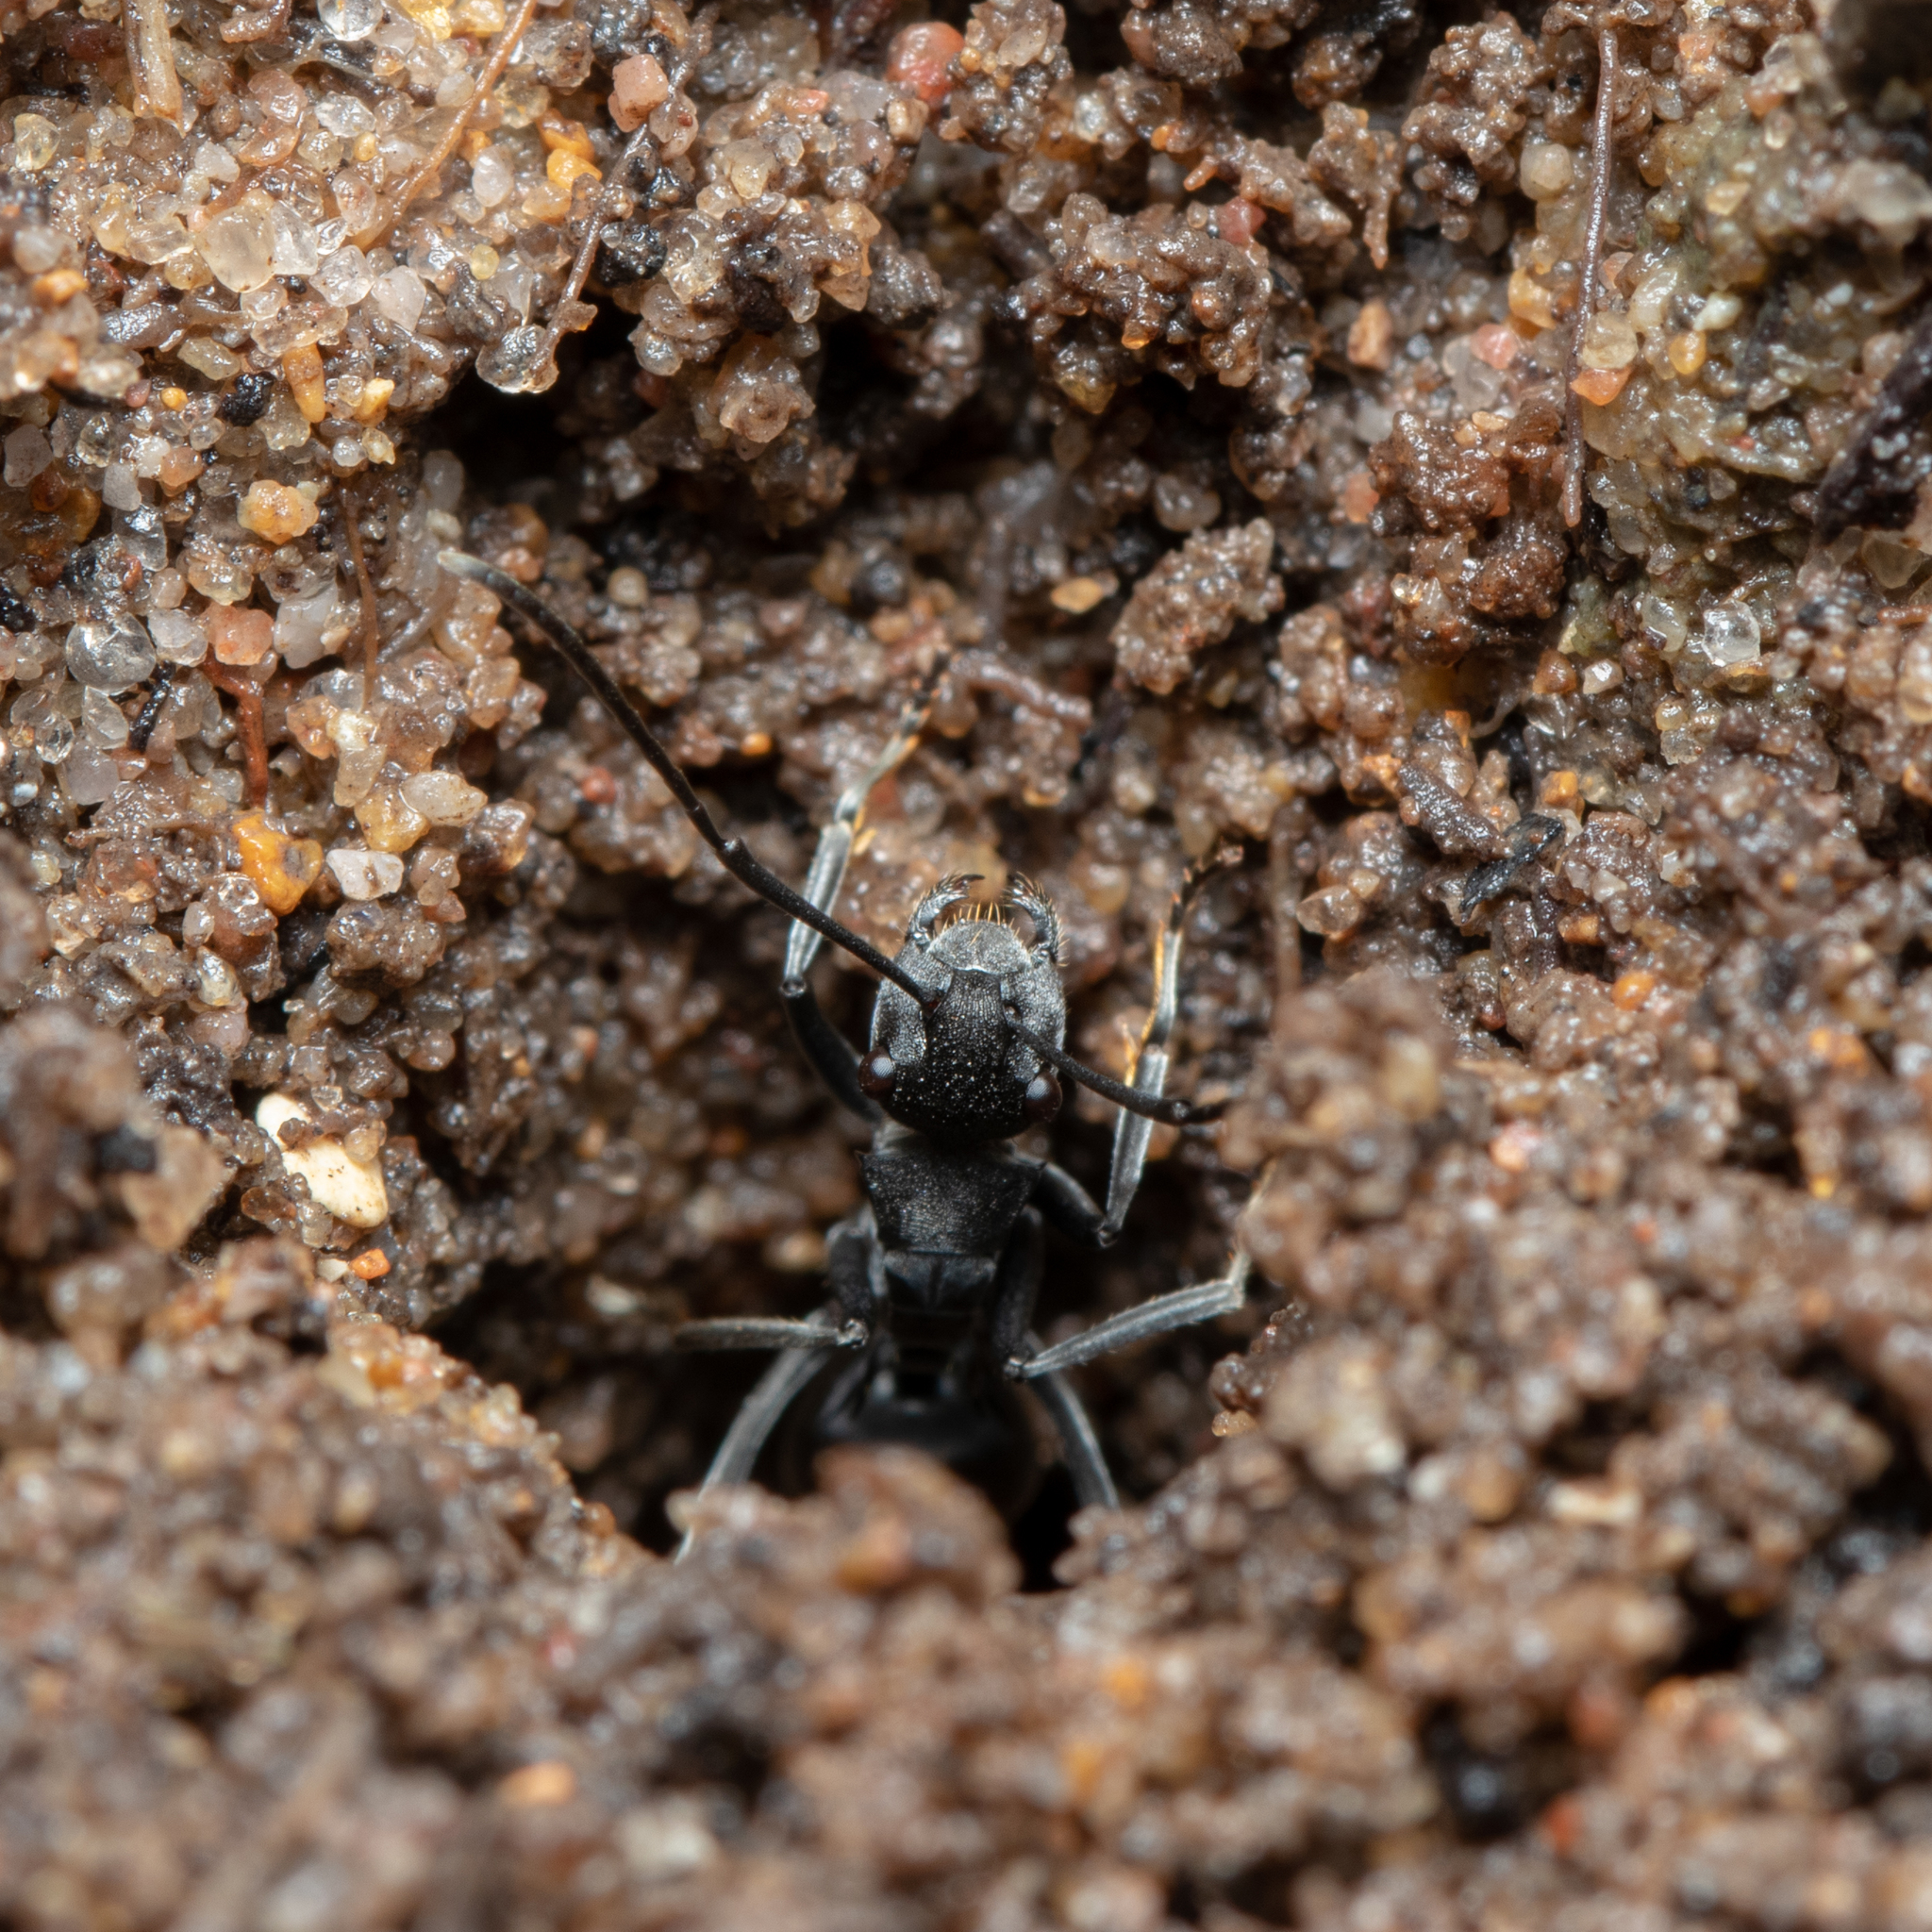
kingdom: Animalia
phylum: Arthropoda
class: Insecta
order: Hymenoptera
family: Formicidae
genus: Polyrhachis
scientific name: Polyrhachis sokolova
